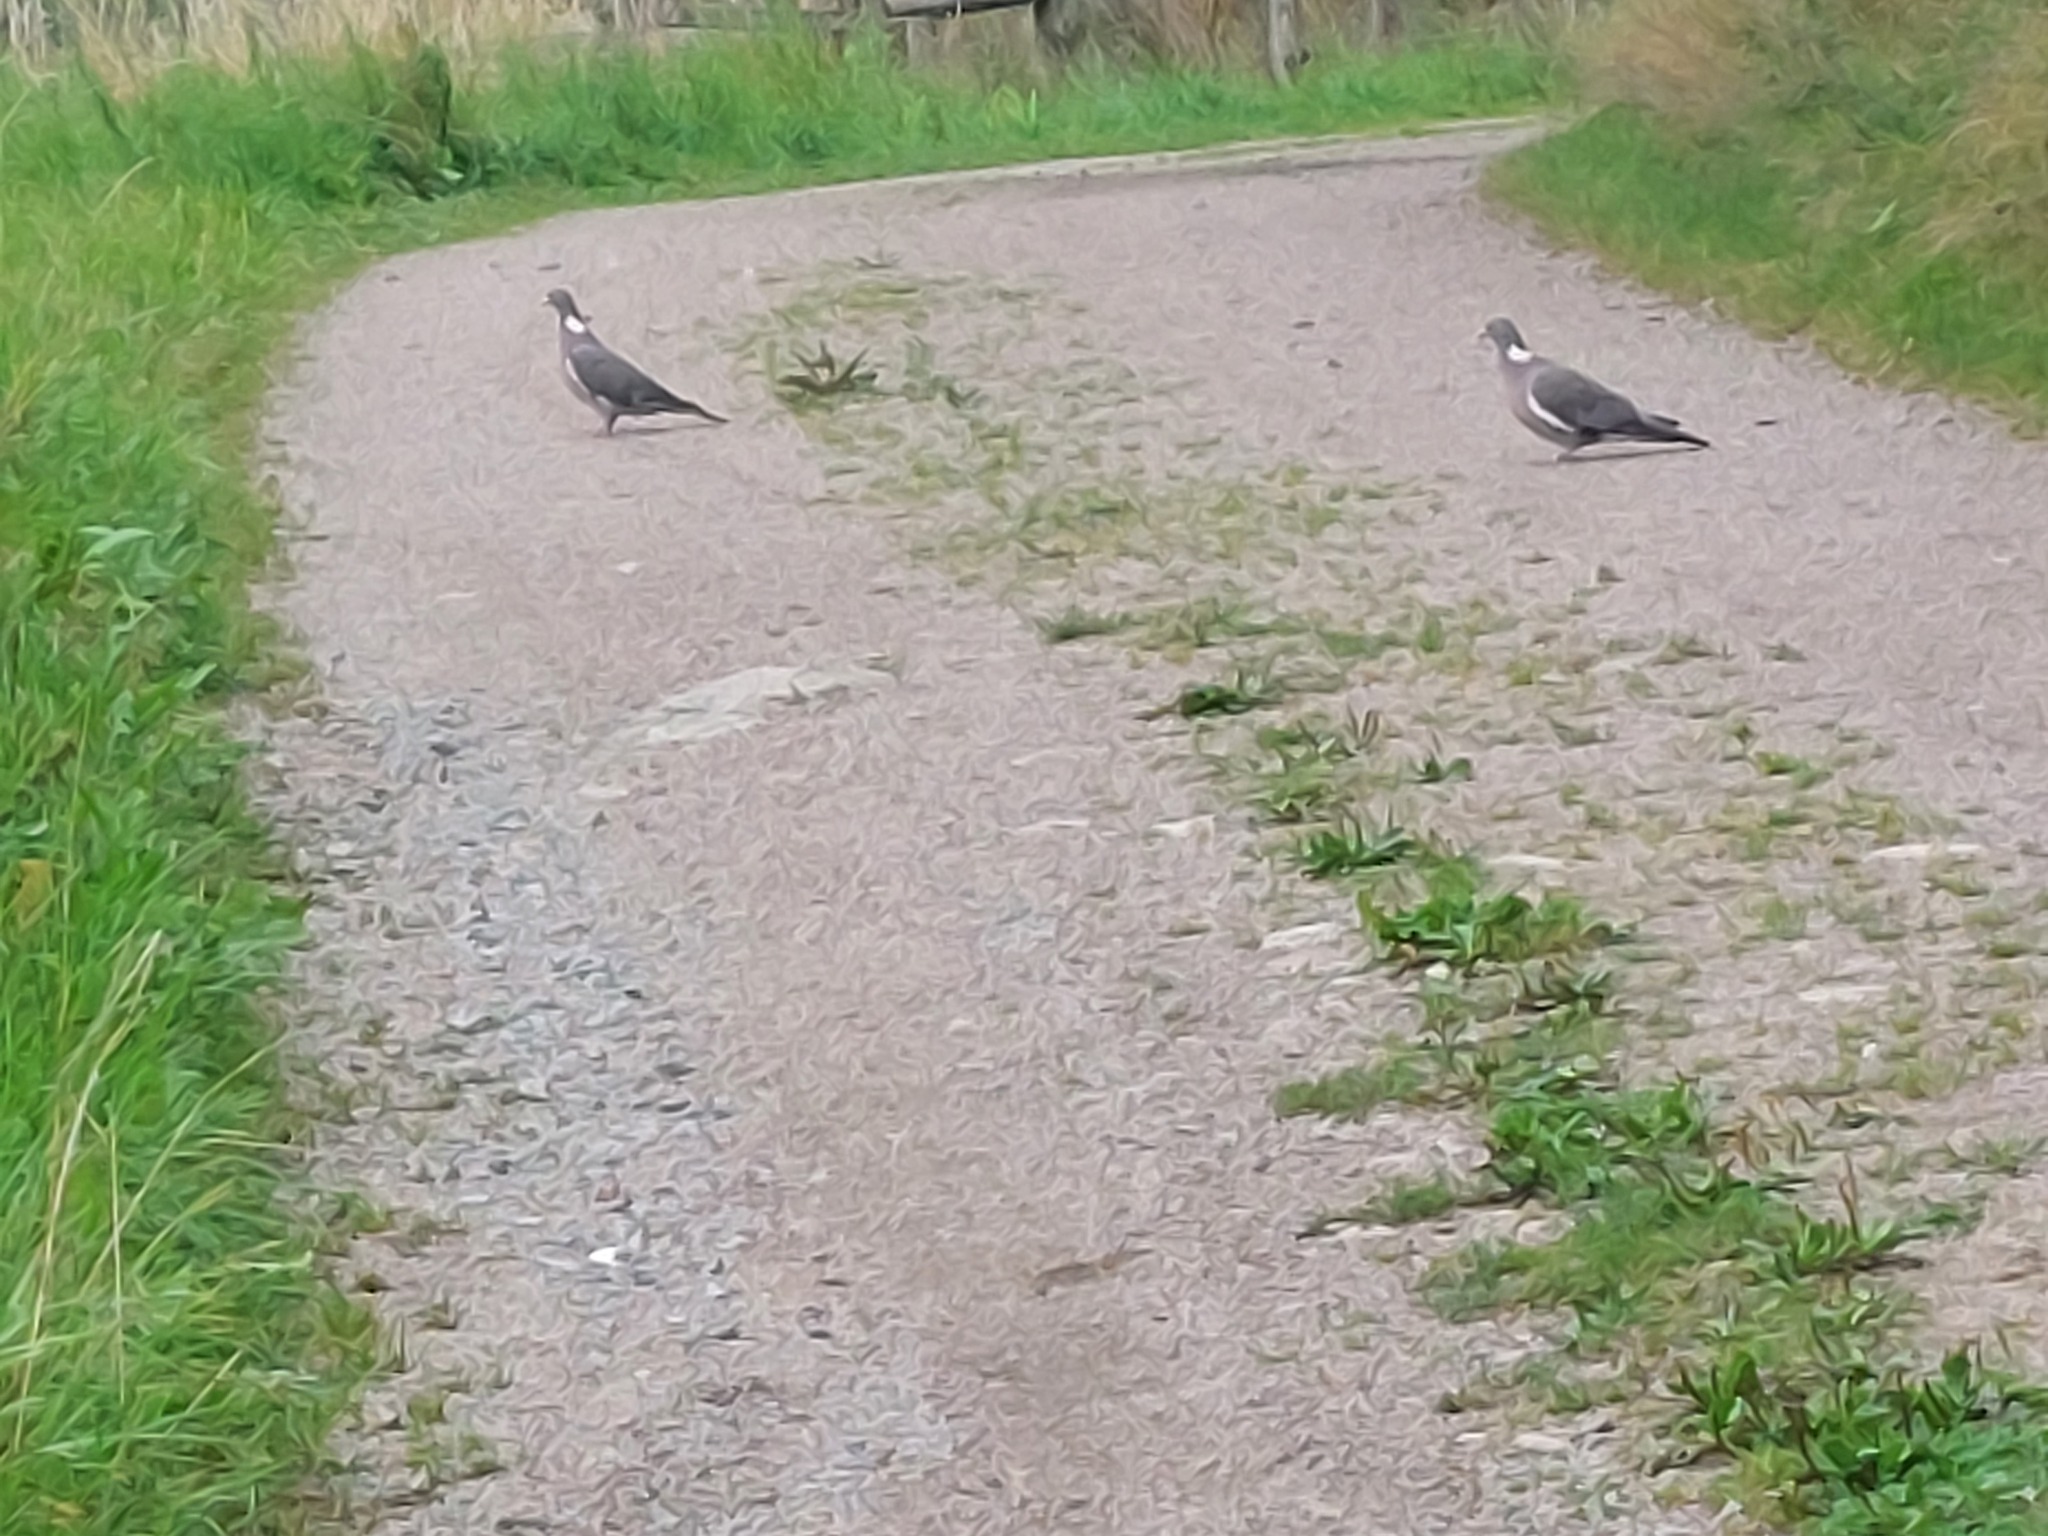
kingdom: Animalia
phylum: Chordata
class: Aves
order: Columbiformes
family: Columbidae
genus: Columba
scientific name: Columba palumbus
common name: Common wood pigeon
